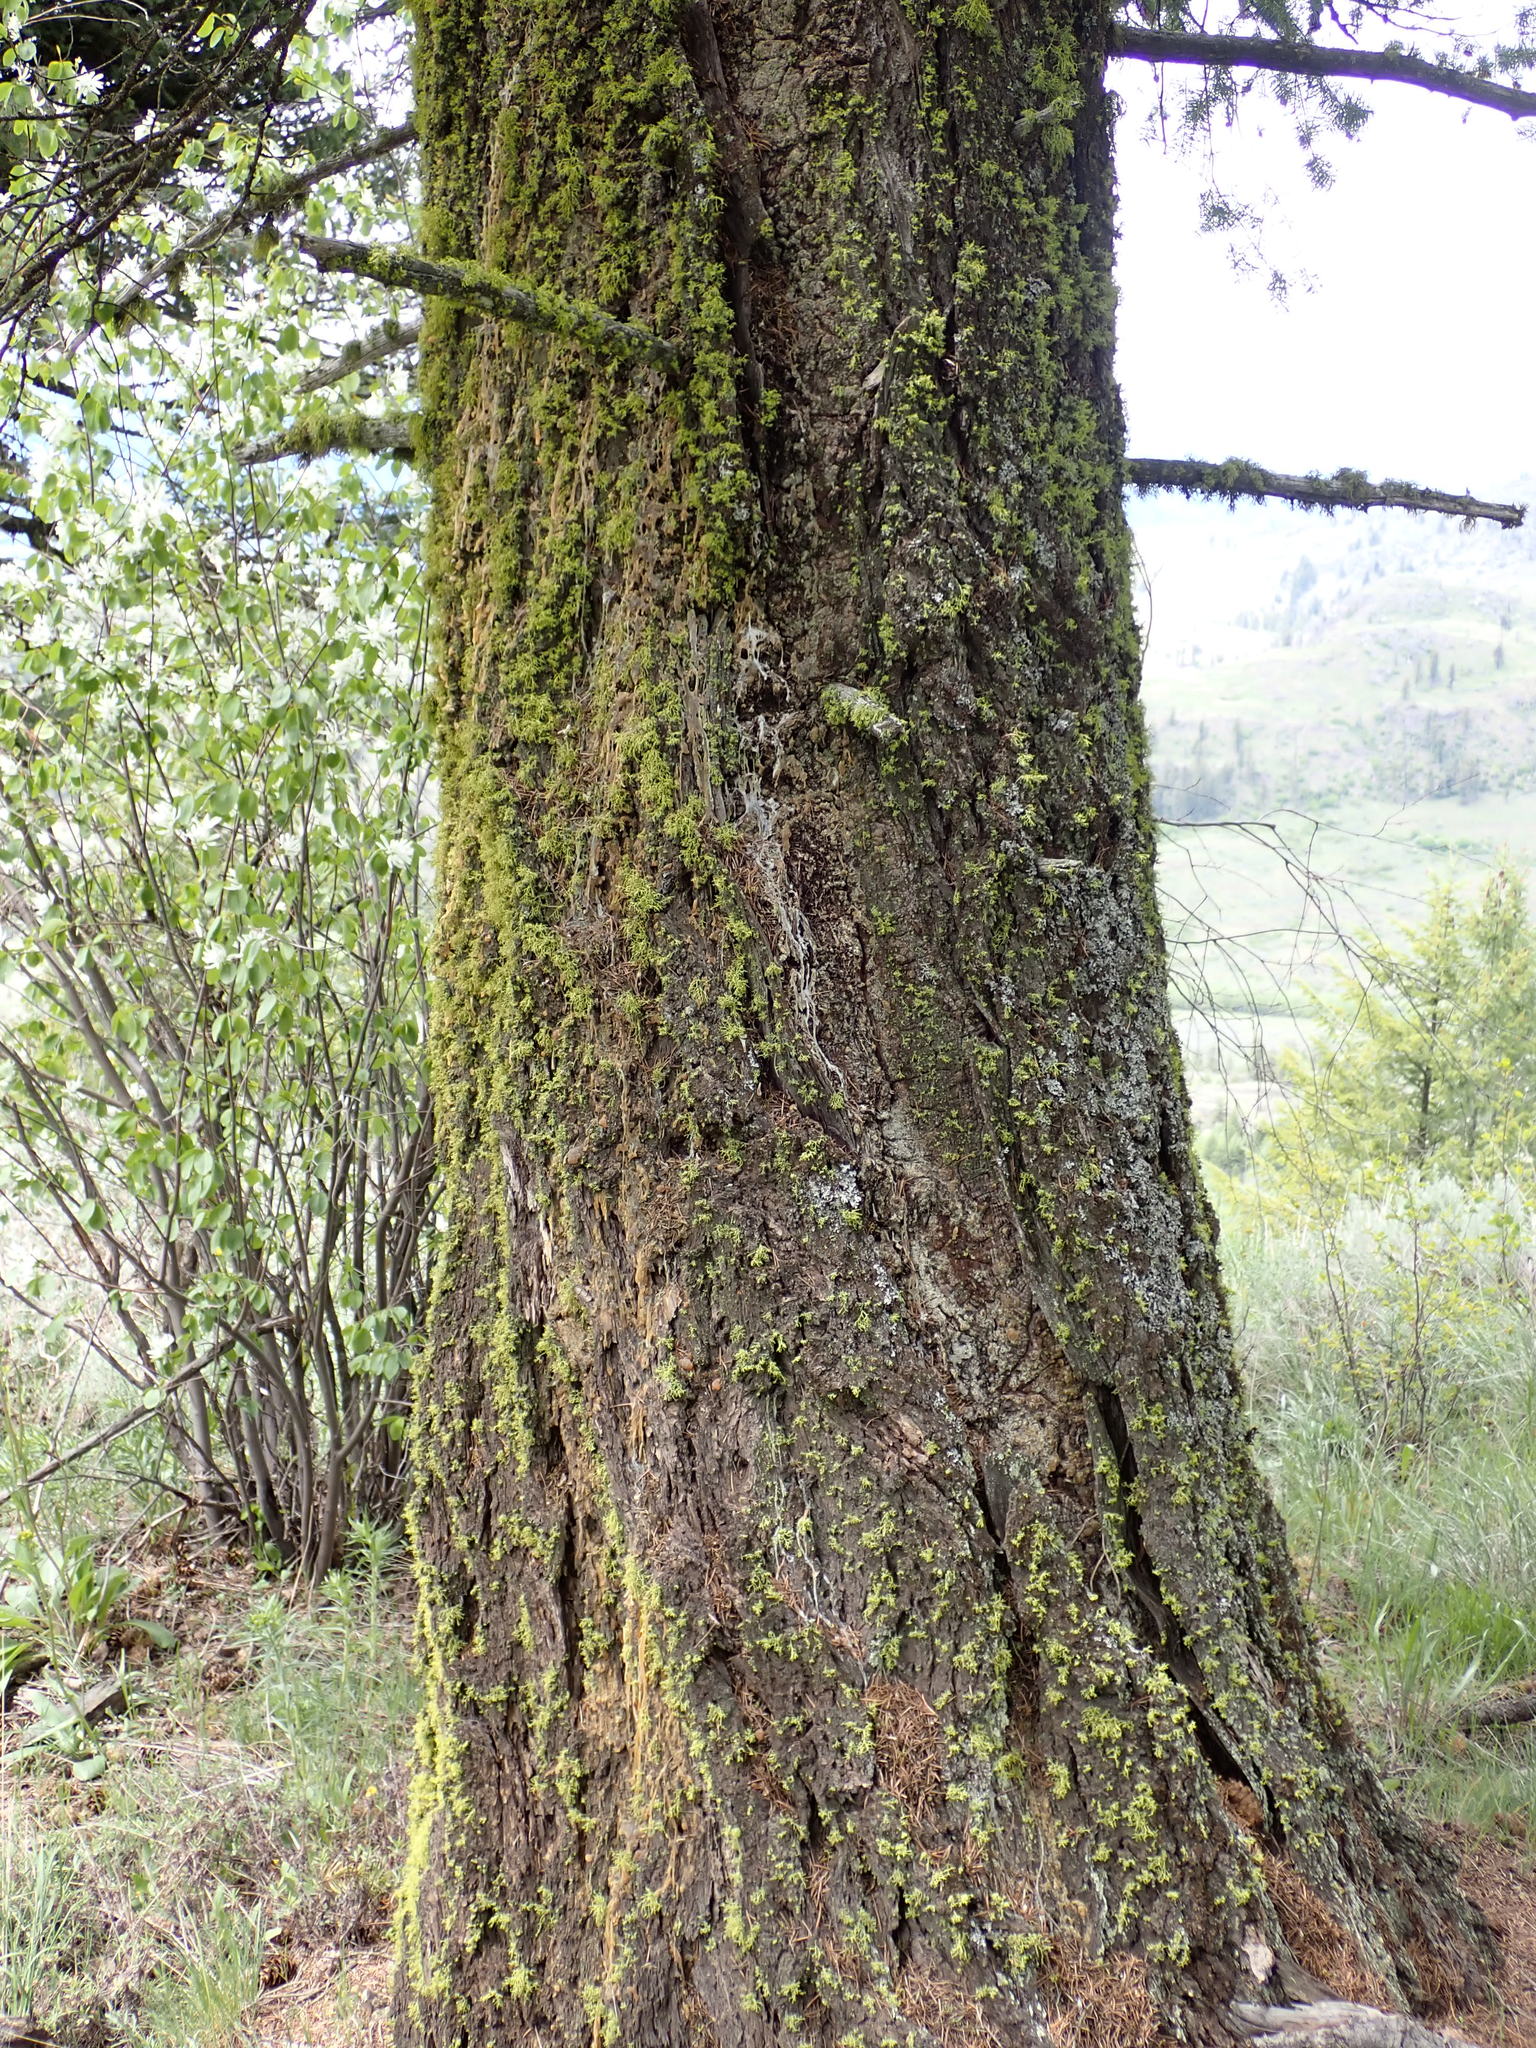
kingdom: Plantae
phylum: Tracheophyta
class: Pinopsida
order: Pinales
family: Pinaceae
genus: Pseudotsuga
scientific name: Pseudotsuga menziesii
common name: Douglas fir
